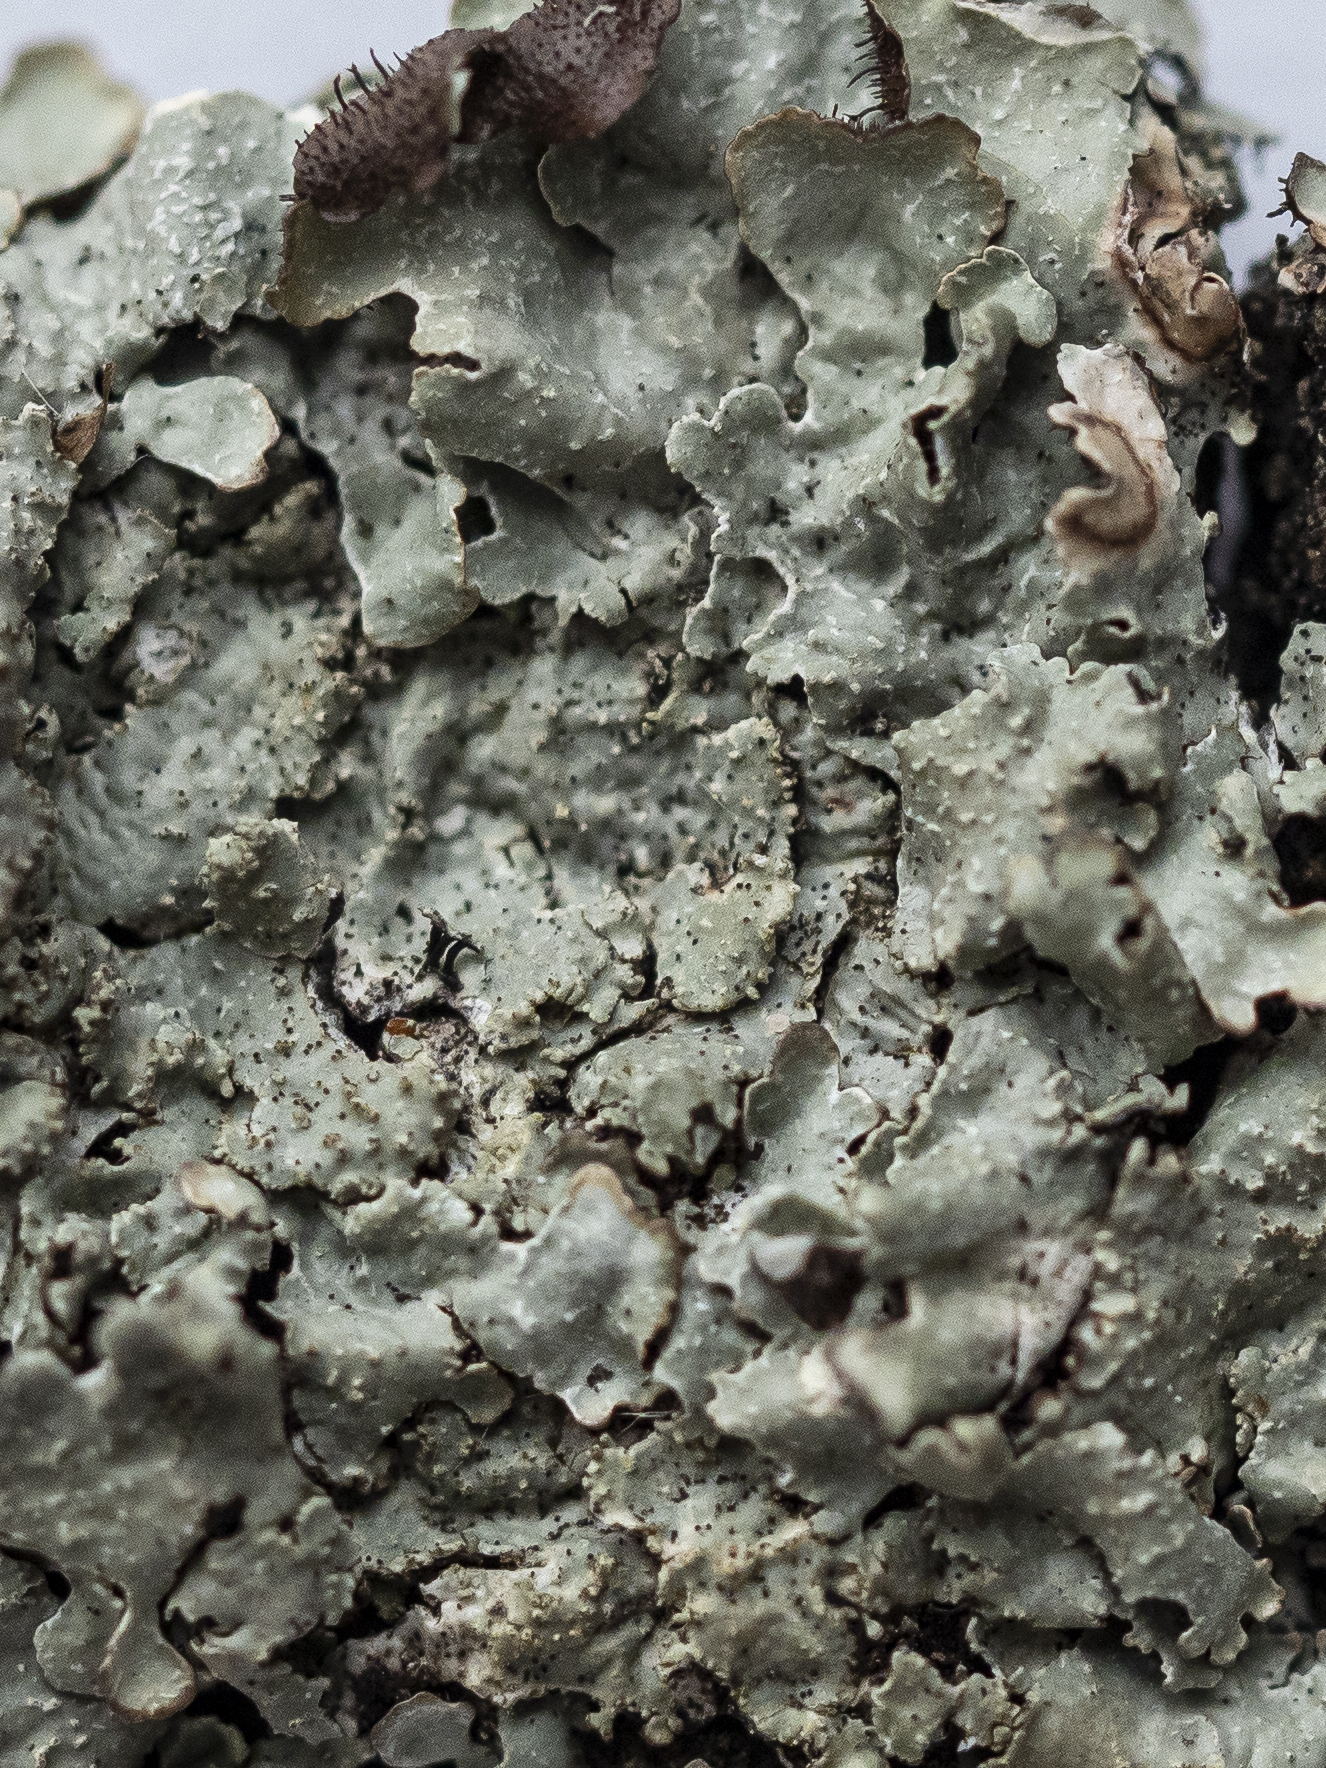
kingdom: Fungi
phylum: Ascomycota
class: Lecanoromycetes
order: Lecanorales
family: Parmeliaceae
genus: Parmelia
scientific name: Parmelia saxatilis
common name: Salted shield lichen
